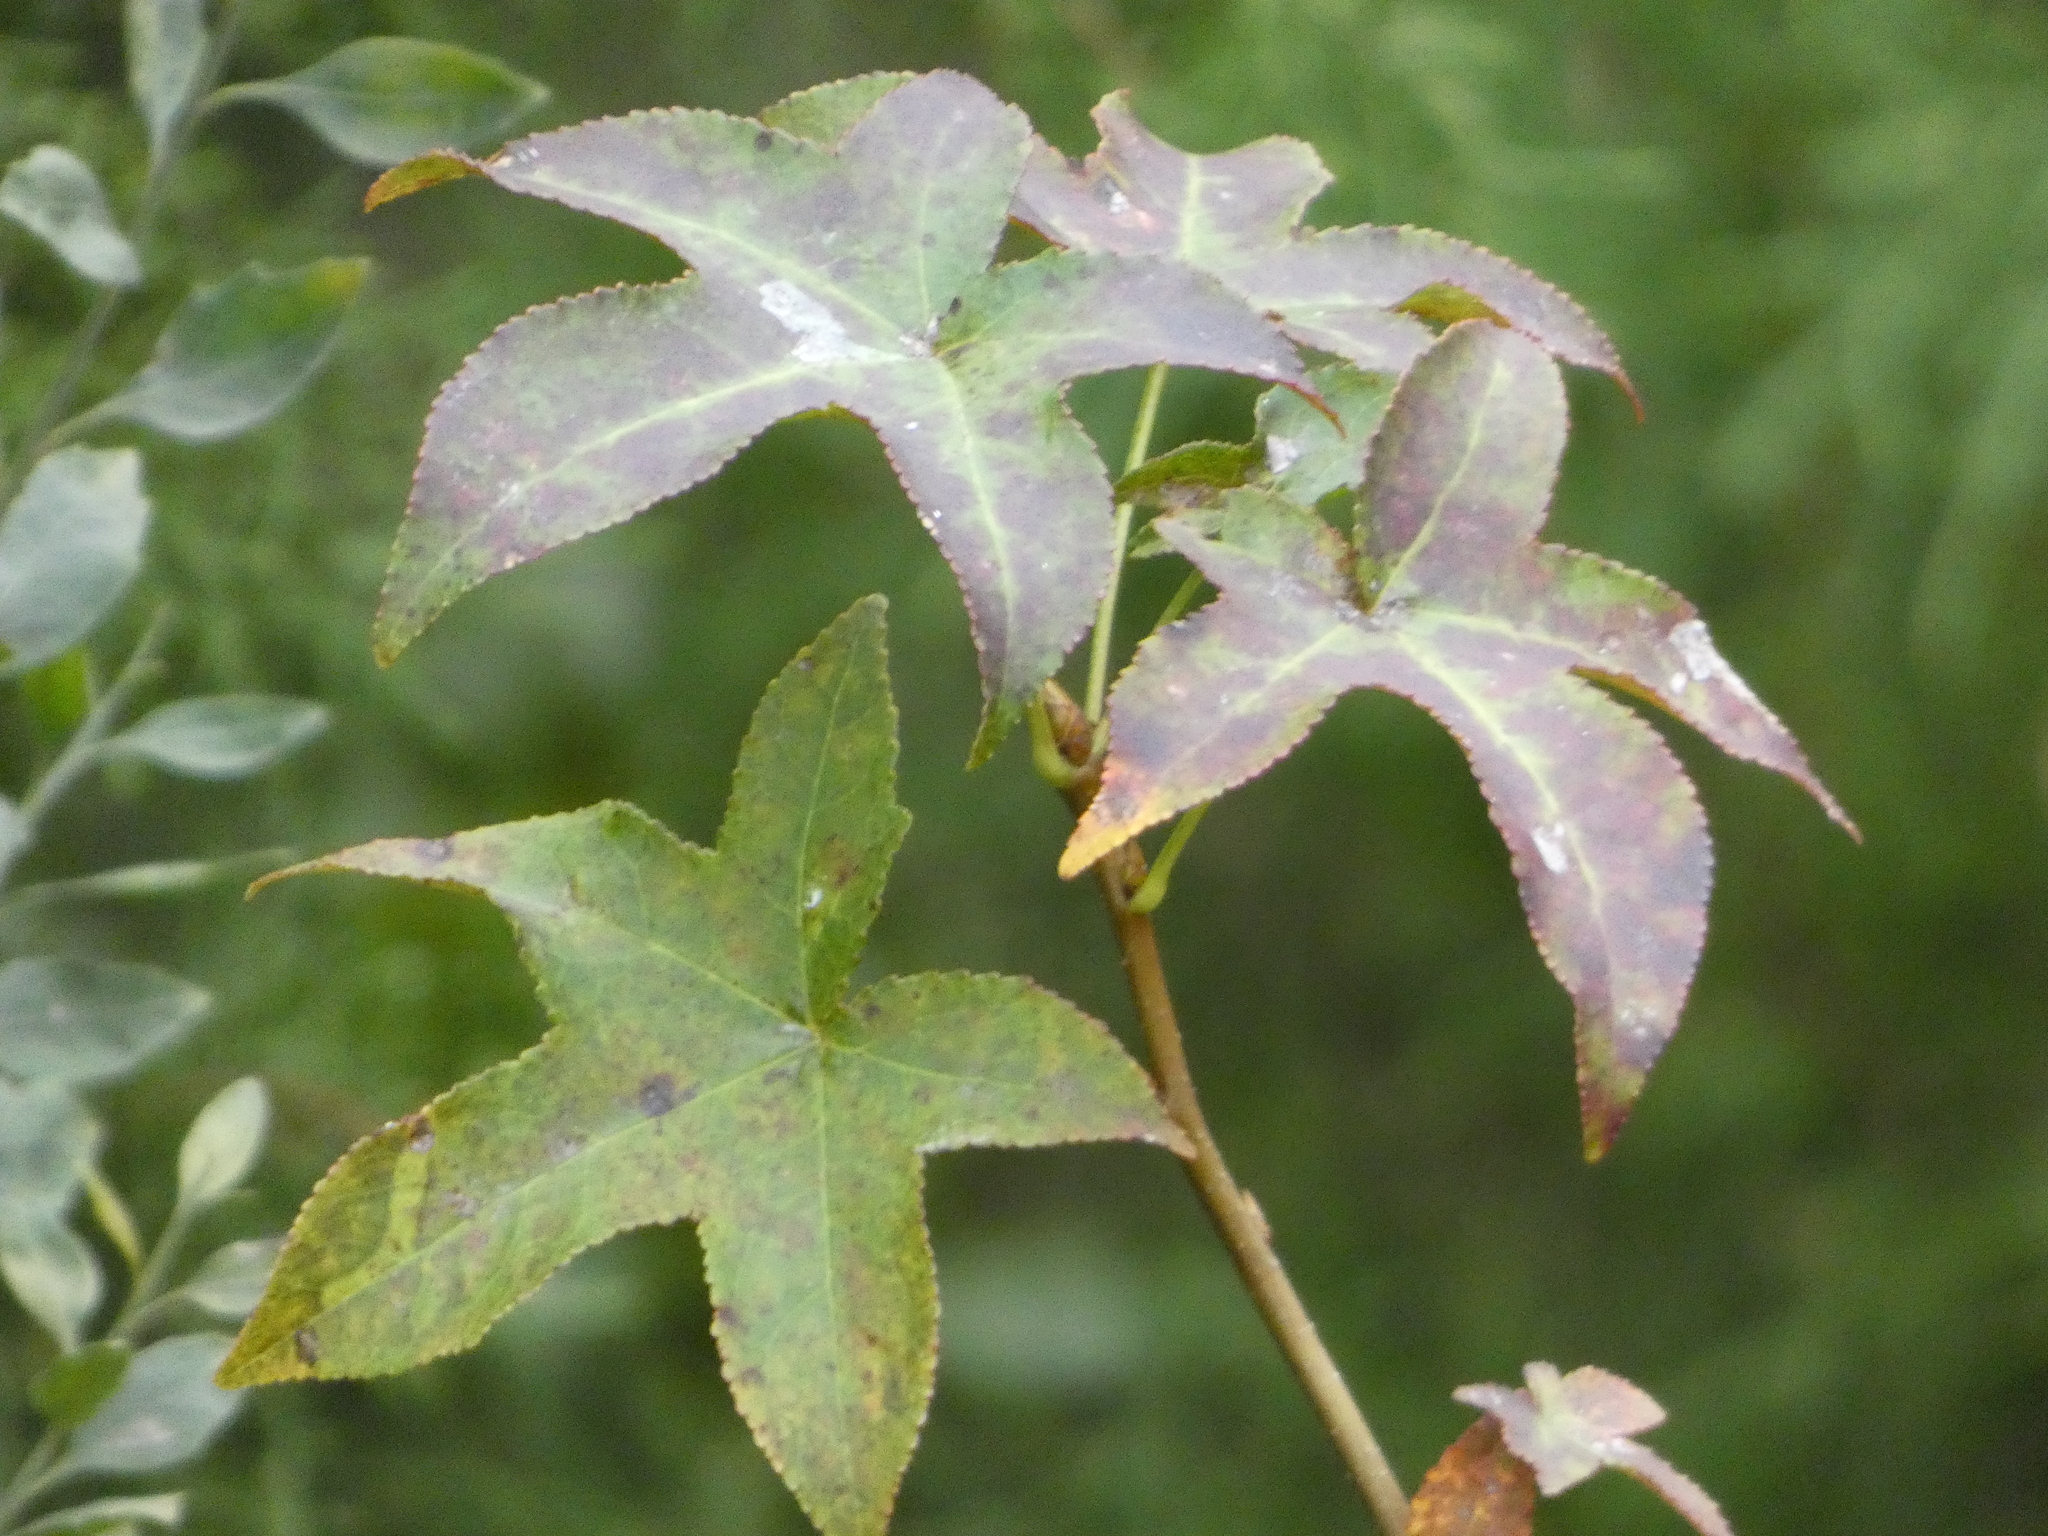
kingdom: Plantae
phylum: Tracheophyta
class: Magnoliopsida
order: Saxifragales
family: Altingiaceae
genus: Liquidambar
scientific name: Liquidambar styraciflua
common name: Sweet gum
